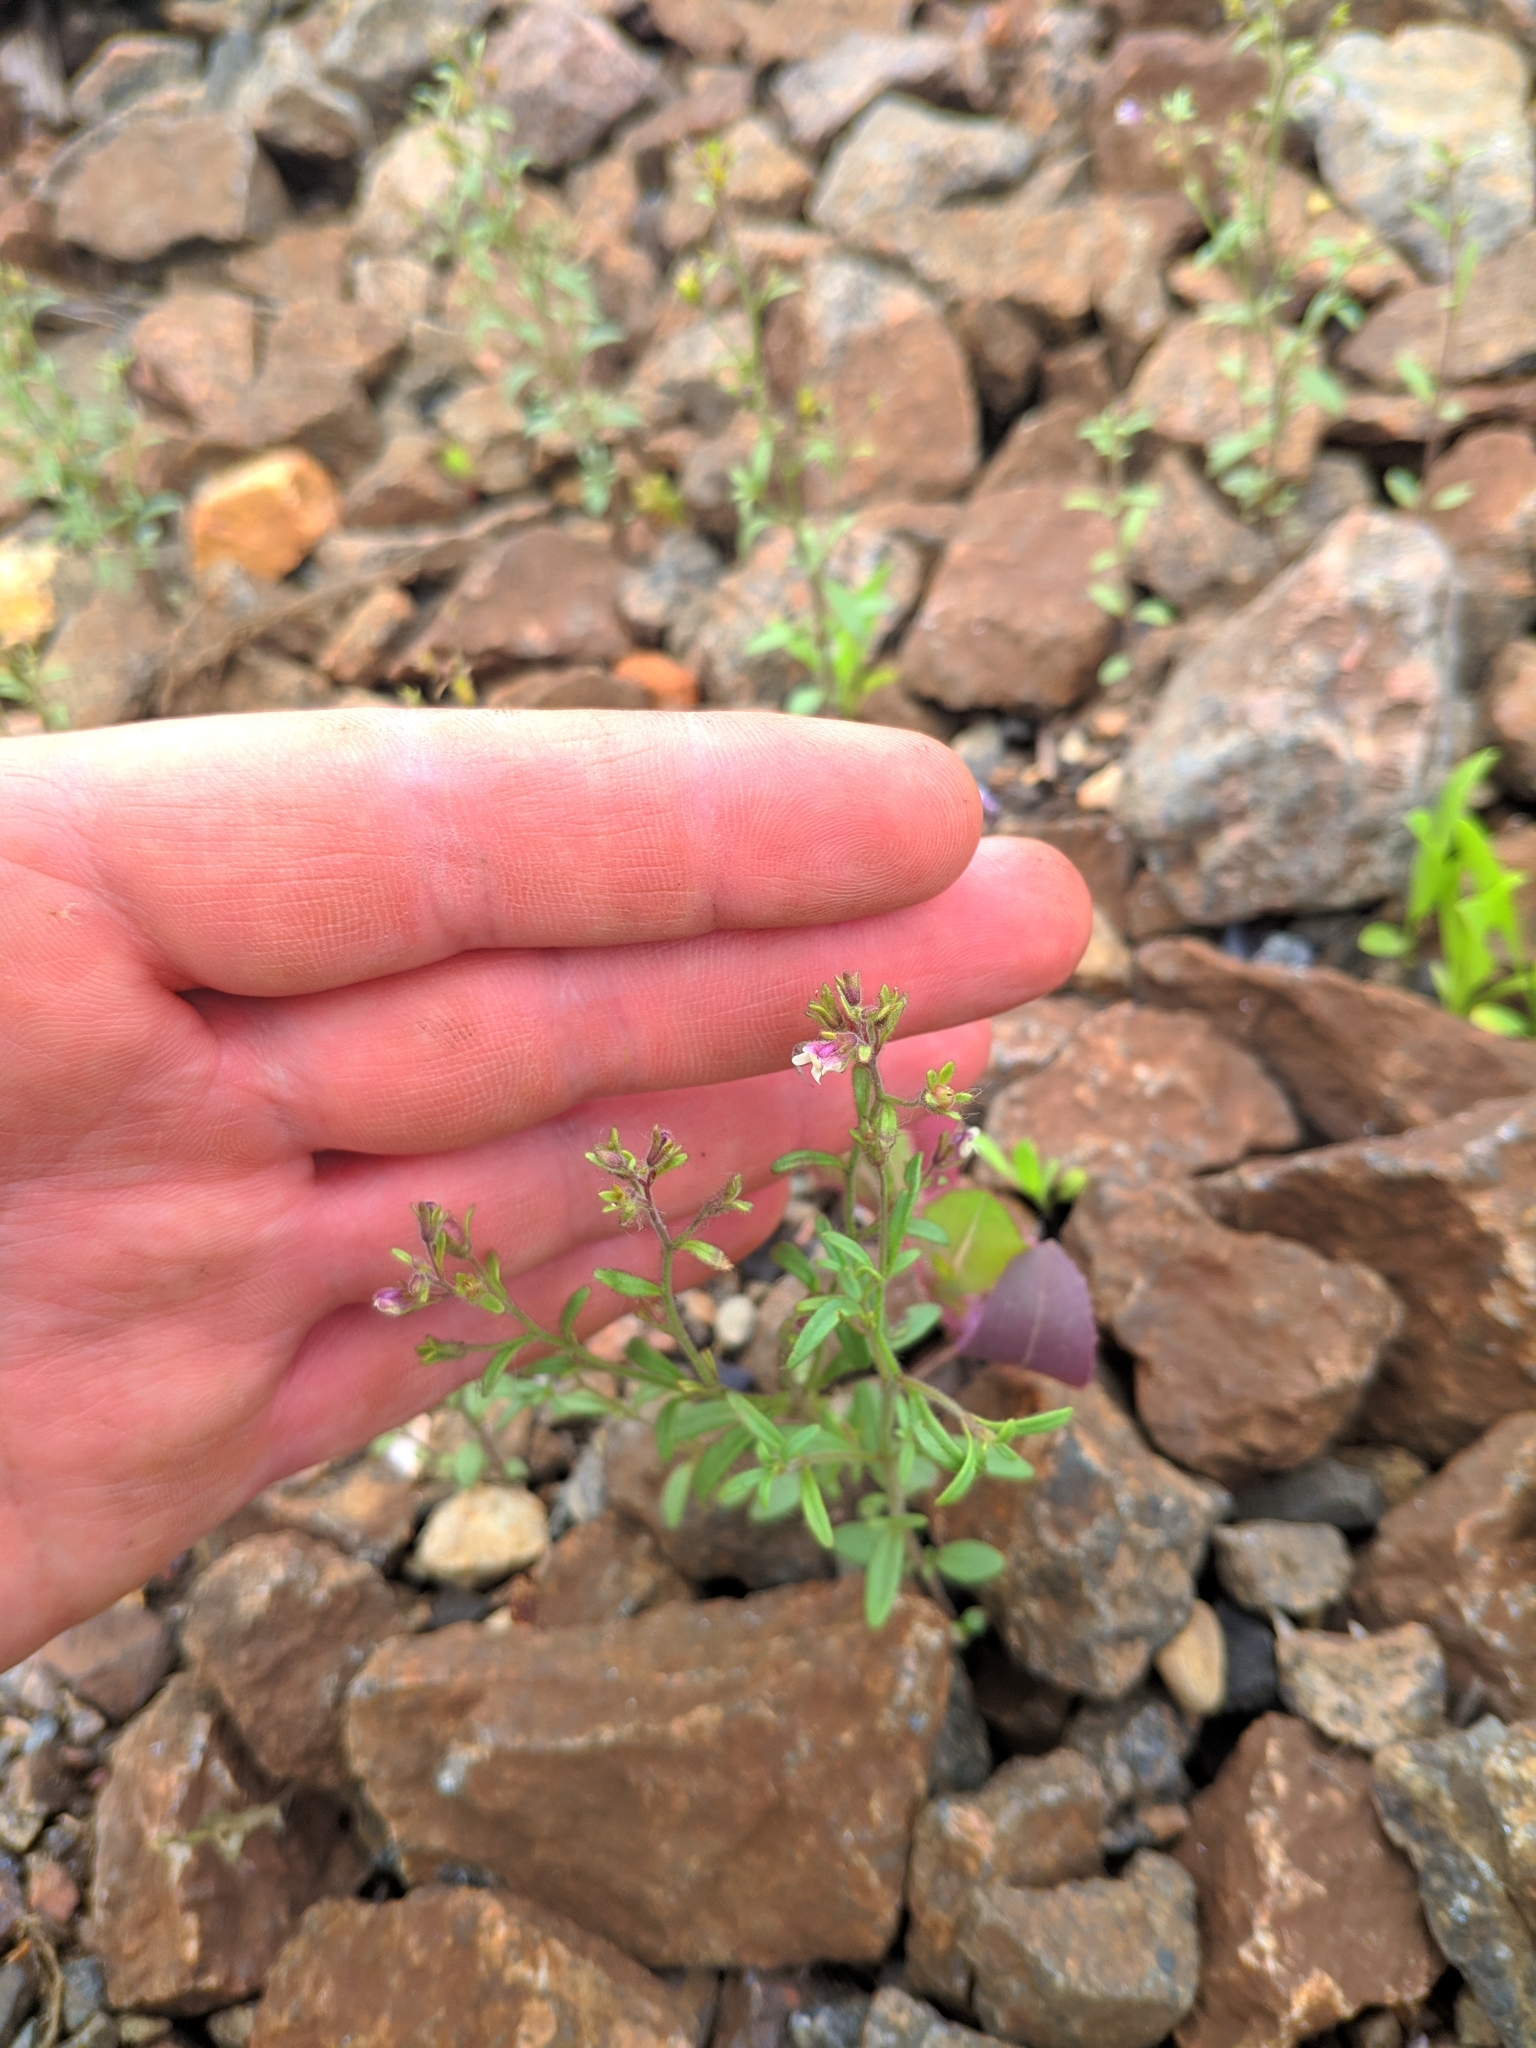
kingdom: Plantae
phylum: Tracheophyta
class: Magnoliopsida
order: Lamiales
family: Plantaginaceae
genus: Chaenorhinum
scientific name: Chaenorhinum minus
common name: Dwarf snapdragon
